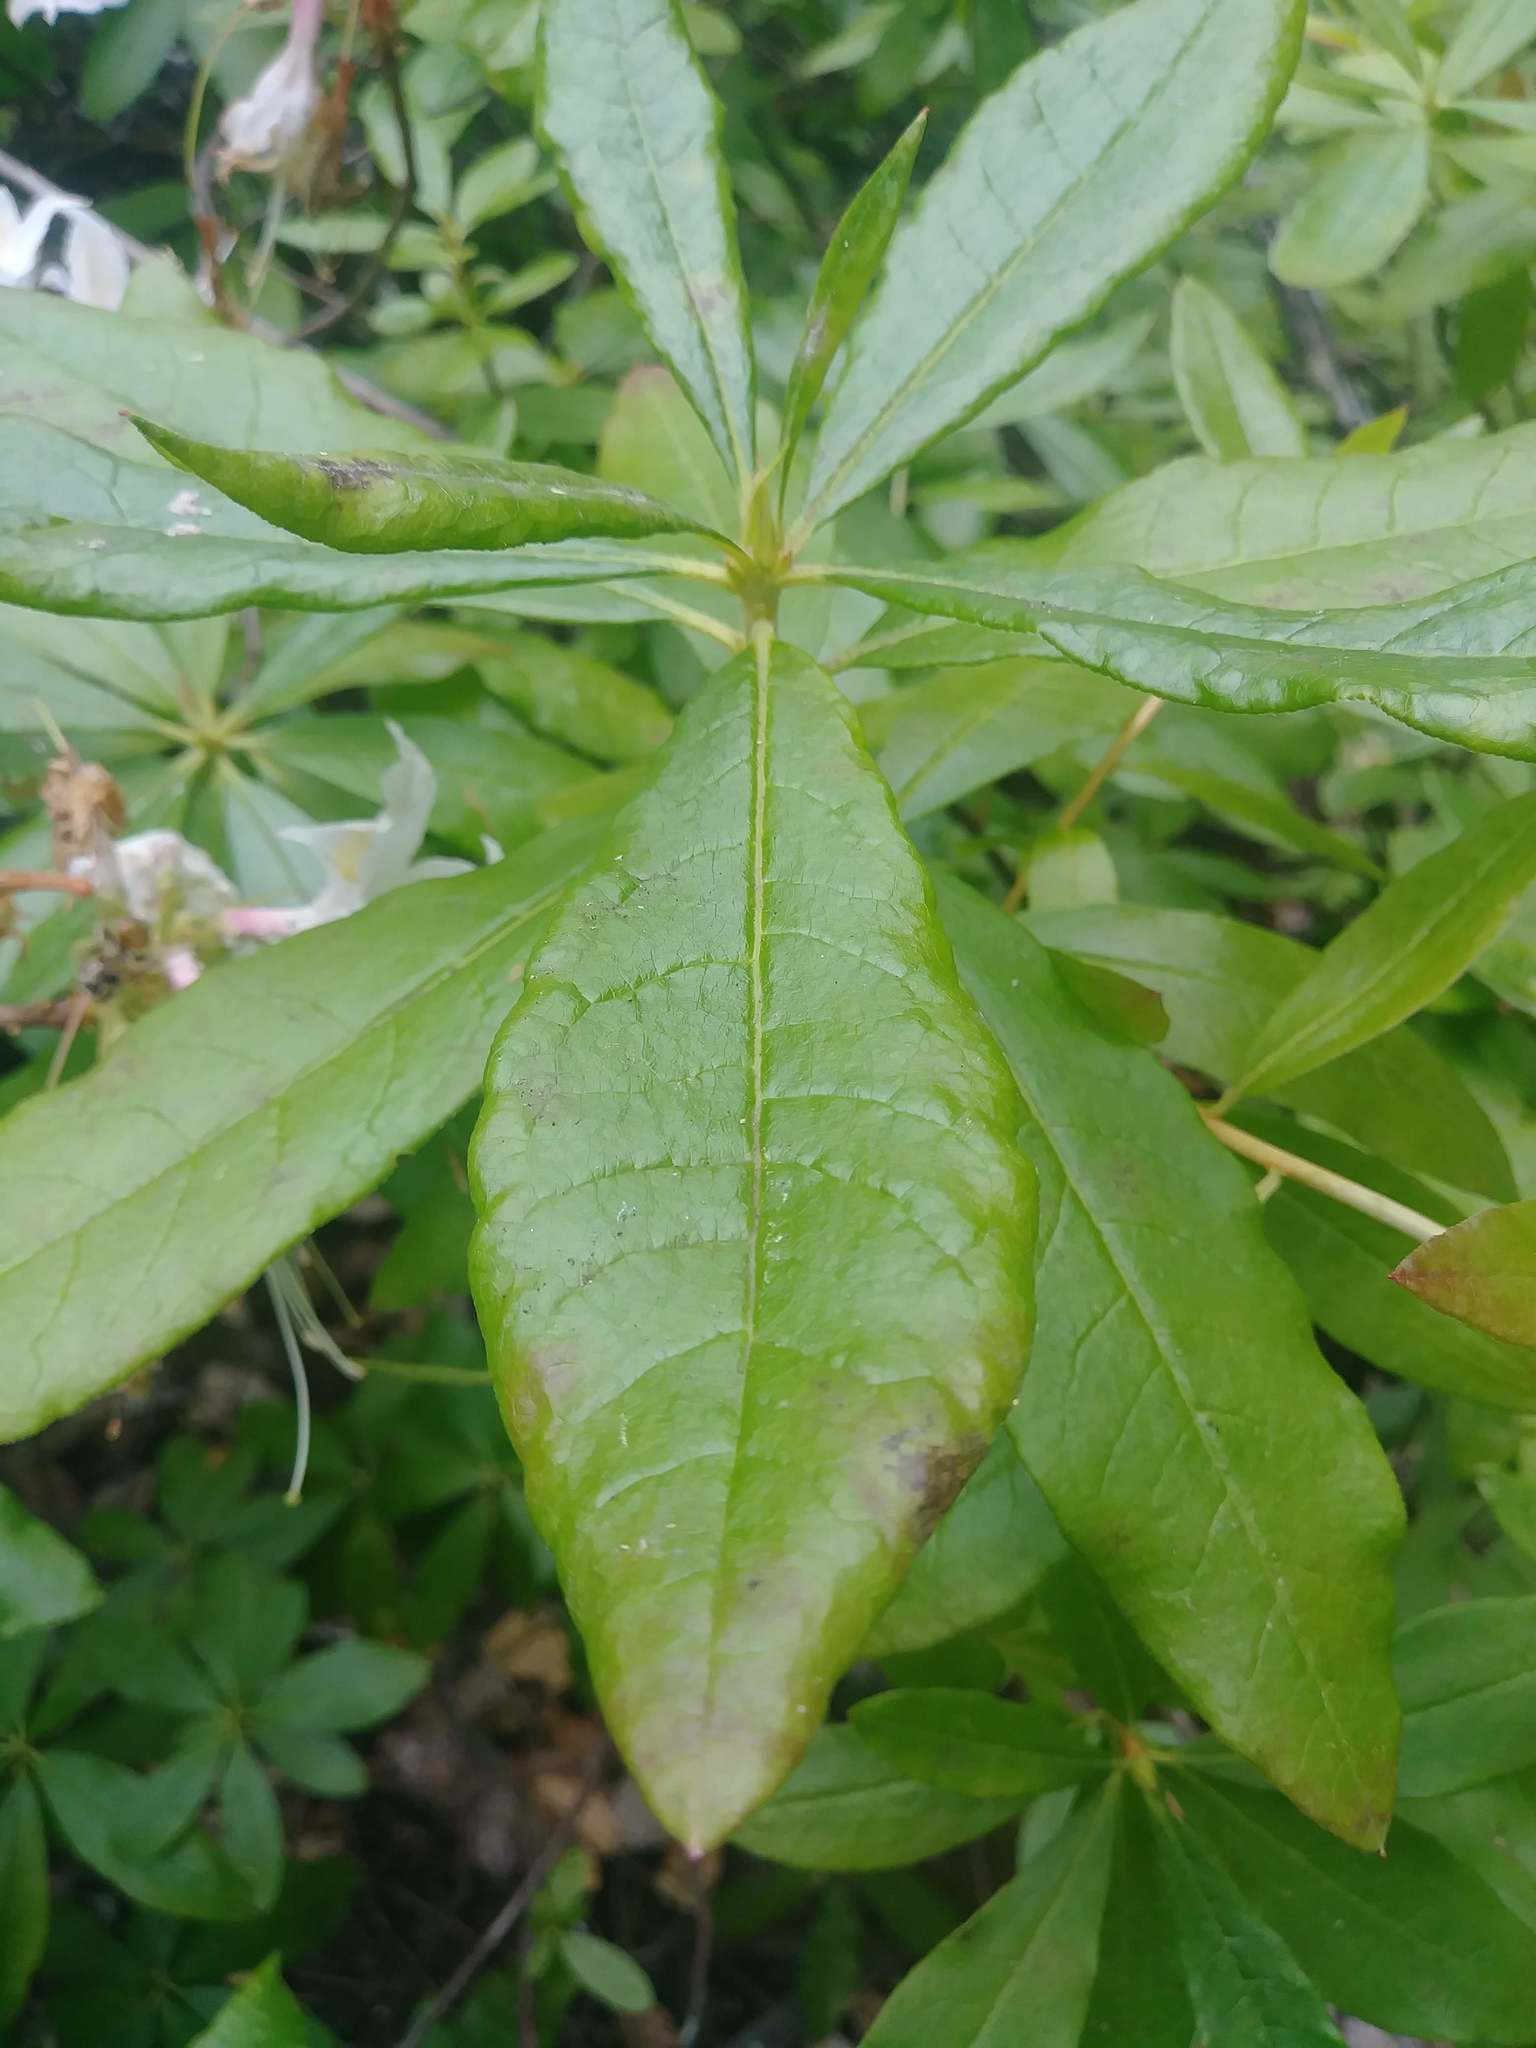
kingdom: Plantae
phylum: Tracheophyta
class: Magnoliopsida
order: Ericales
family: Ericaceae
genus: Rhododendron
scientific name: Rhododendron occidentale
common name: Western azalea
